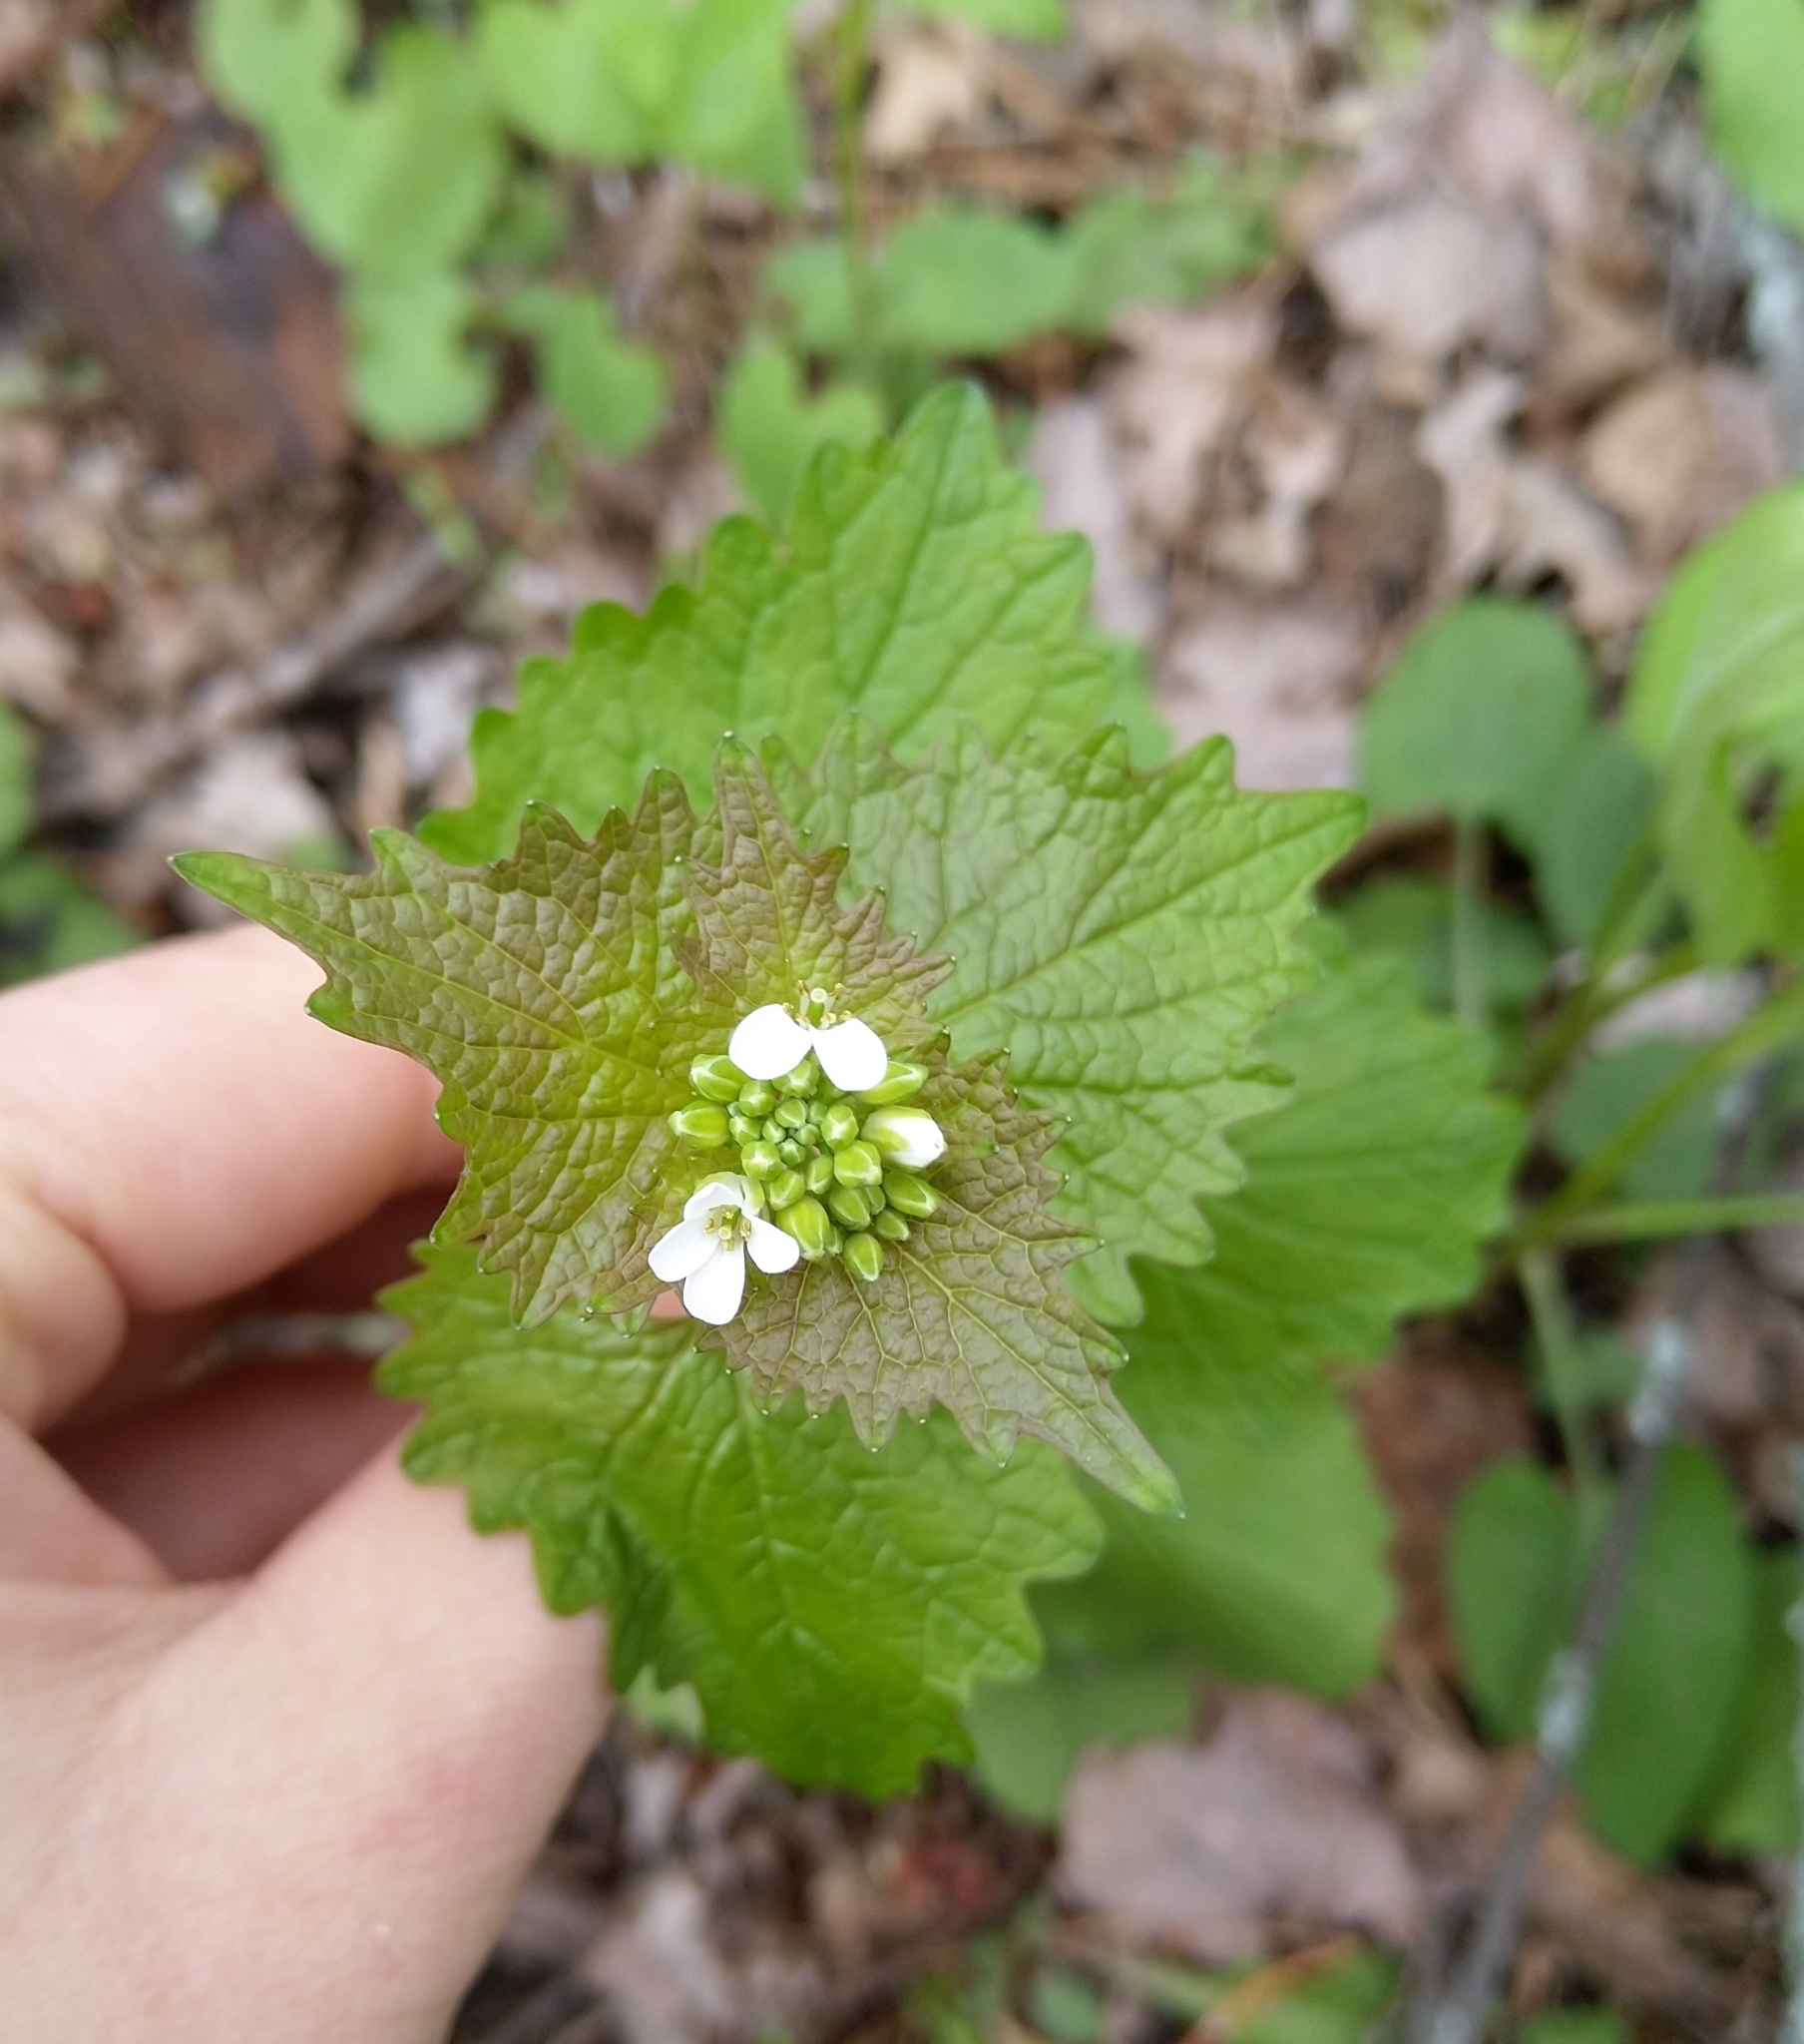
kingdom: Plantae
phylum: Tracheophyta
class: Magnoliopsida
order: Brassicales
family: Brassicaceae
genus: Alliaria
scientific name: Alliaria petiolata
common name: Garlic mustard
